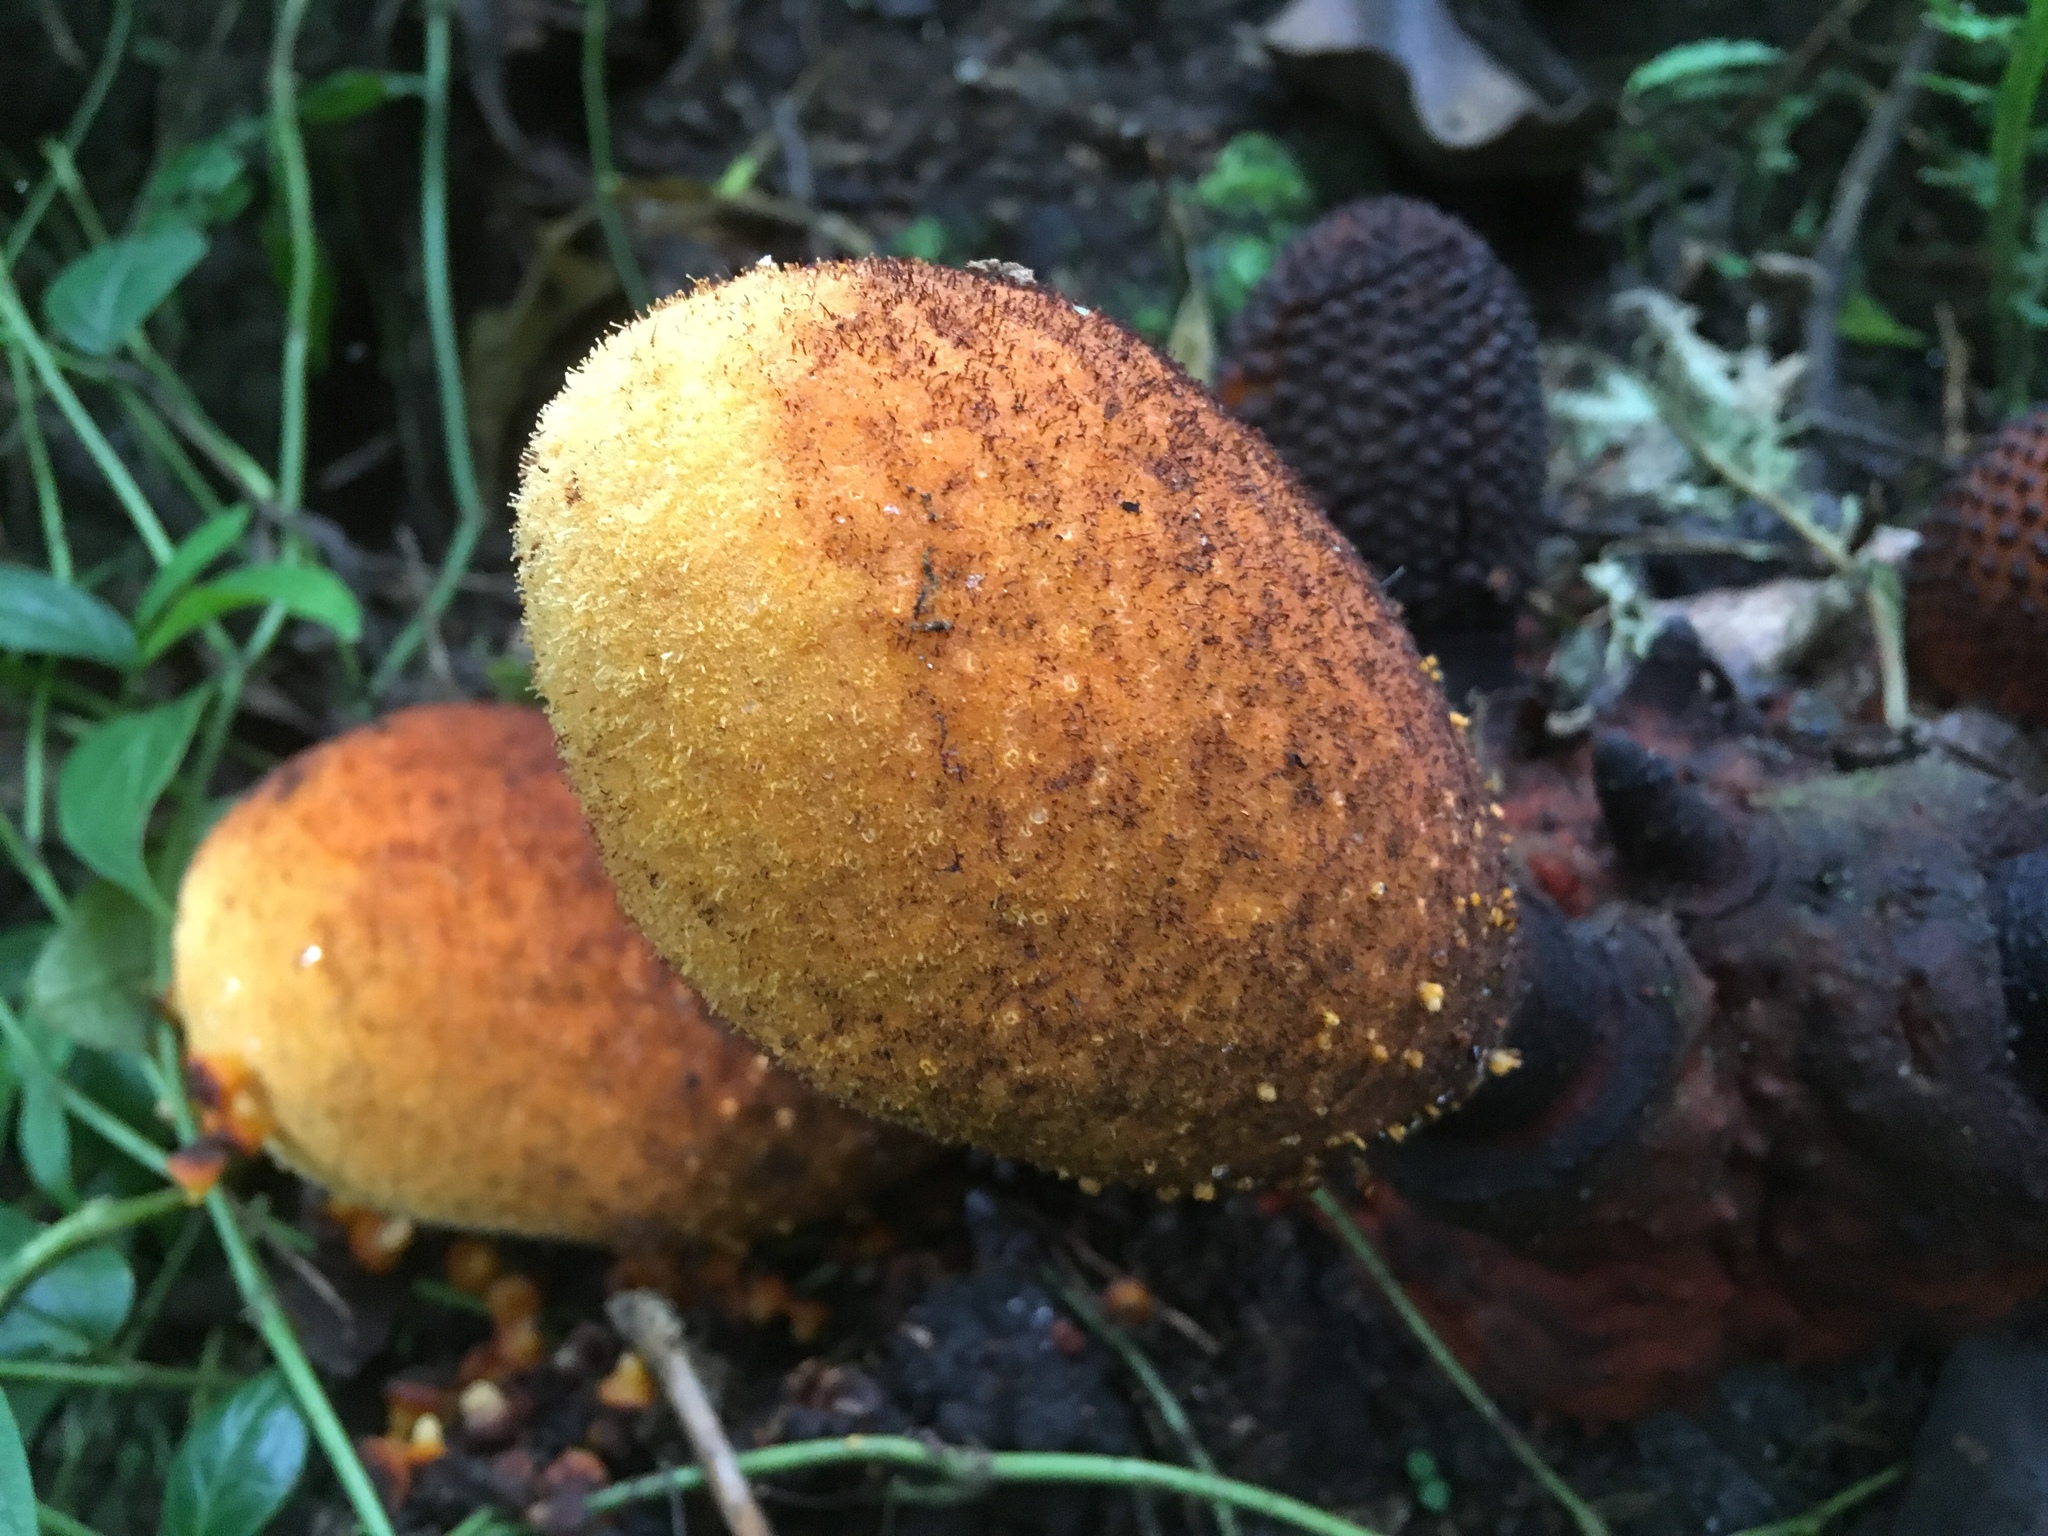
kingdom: Plantae
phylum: Tracheophyta
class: Magnoliopsida
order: Santalales
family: Balanophoraceae
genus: Corynaea
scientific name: Corynaea crassa
